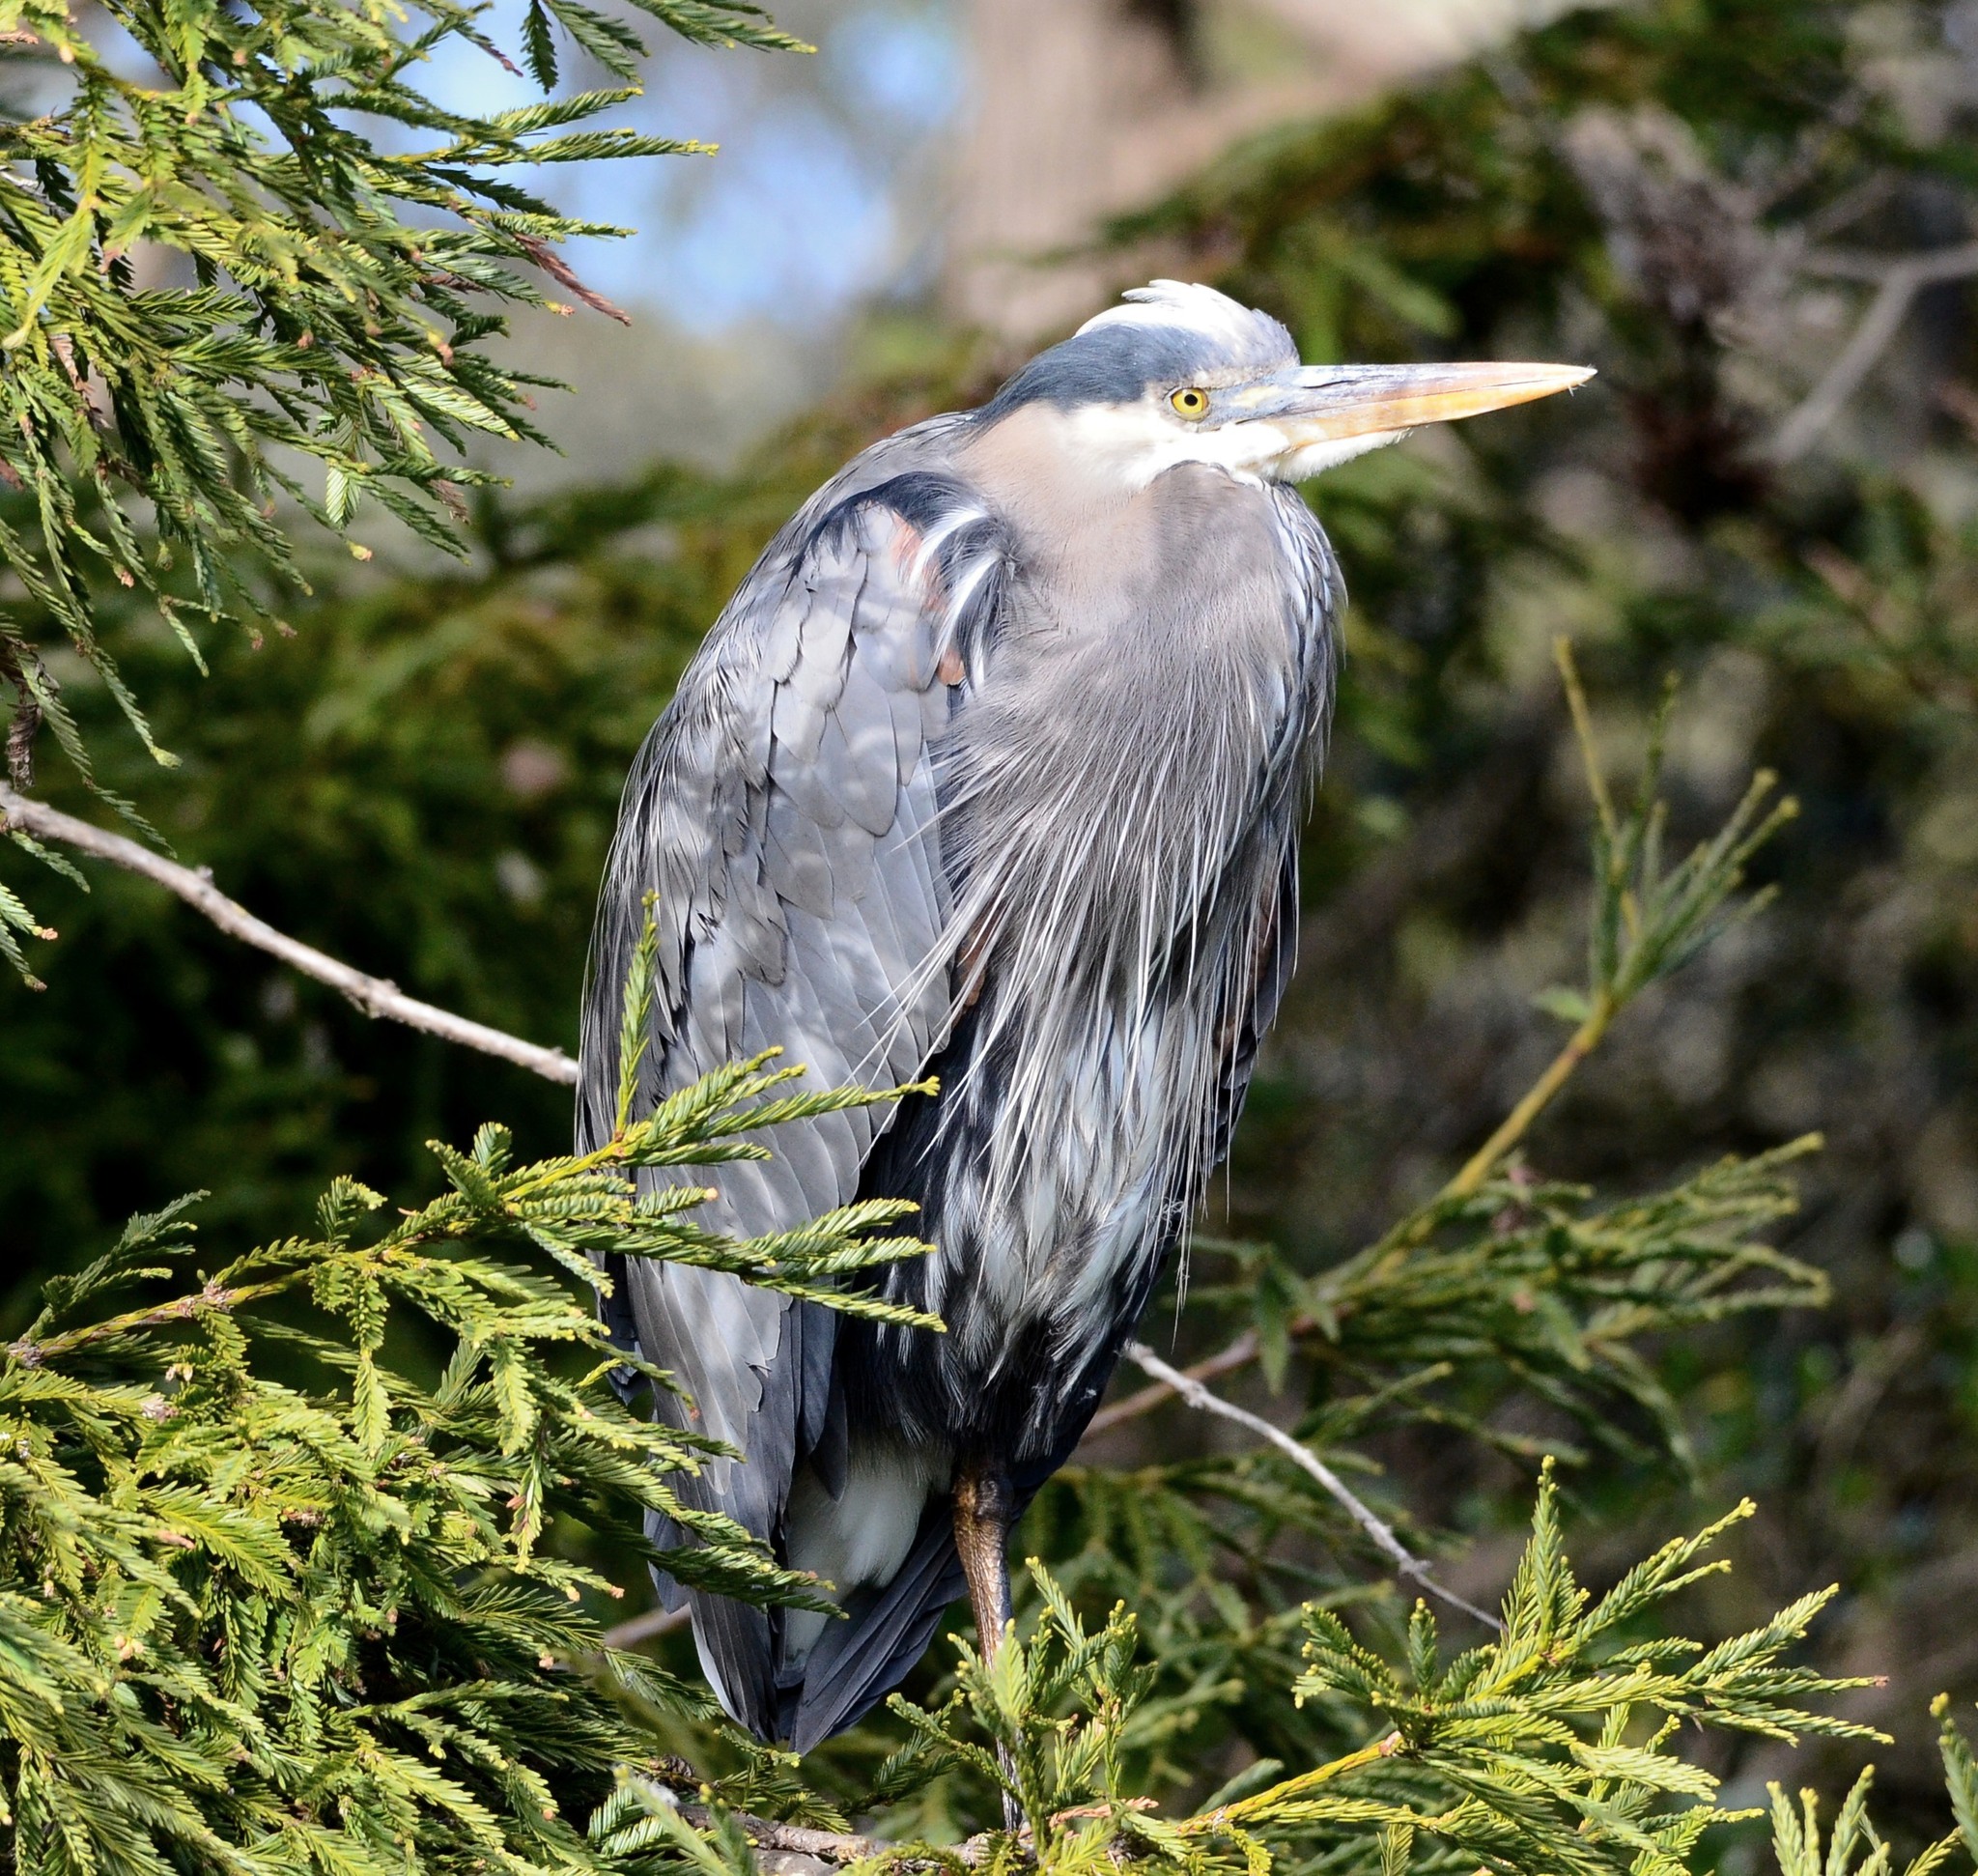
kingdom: Animalia
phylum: Chordata
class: Aves
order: Pelecaniformes
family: Ardeidae
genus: Ardea
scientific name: Ardea herodias
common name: Great blue heron
